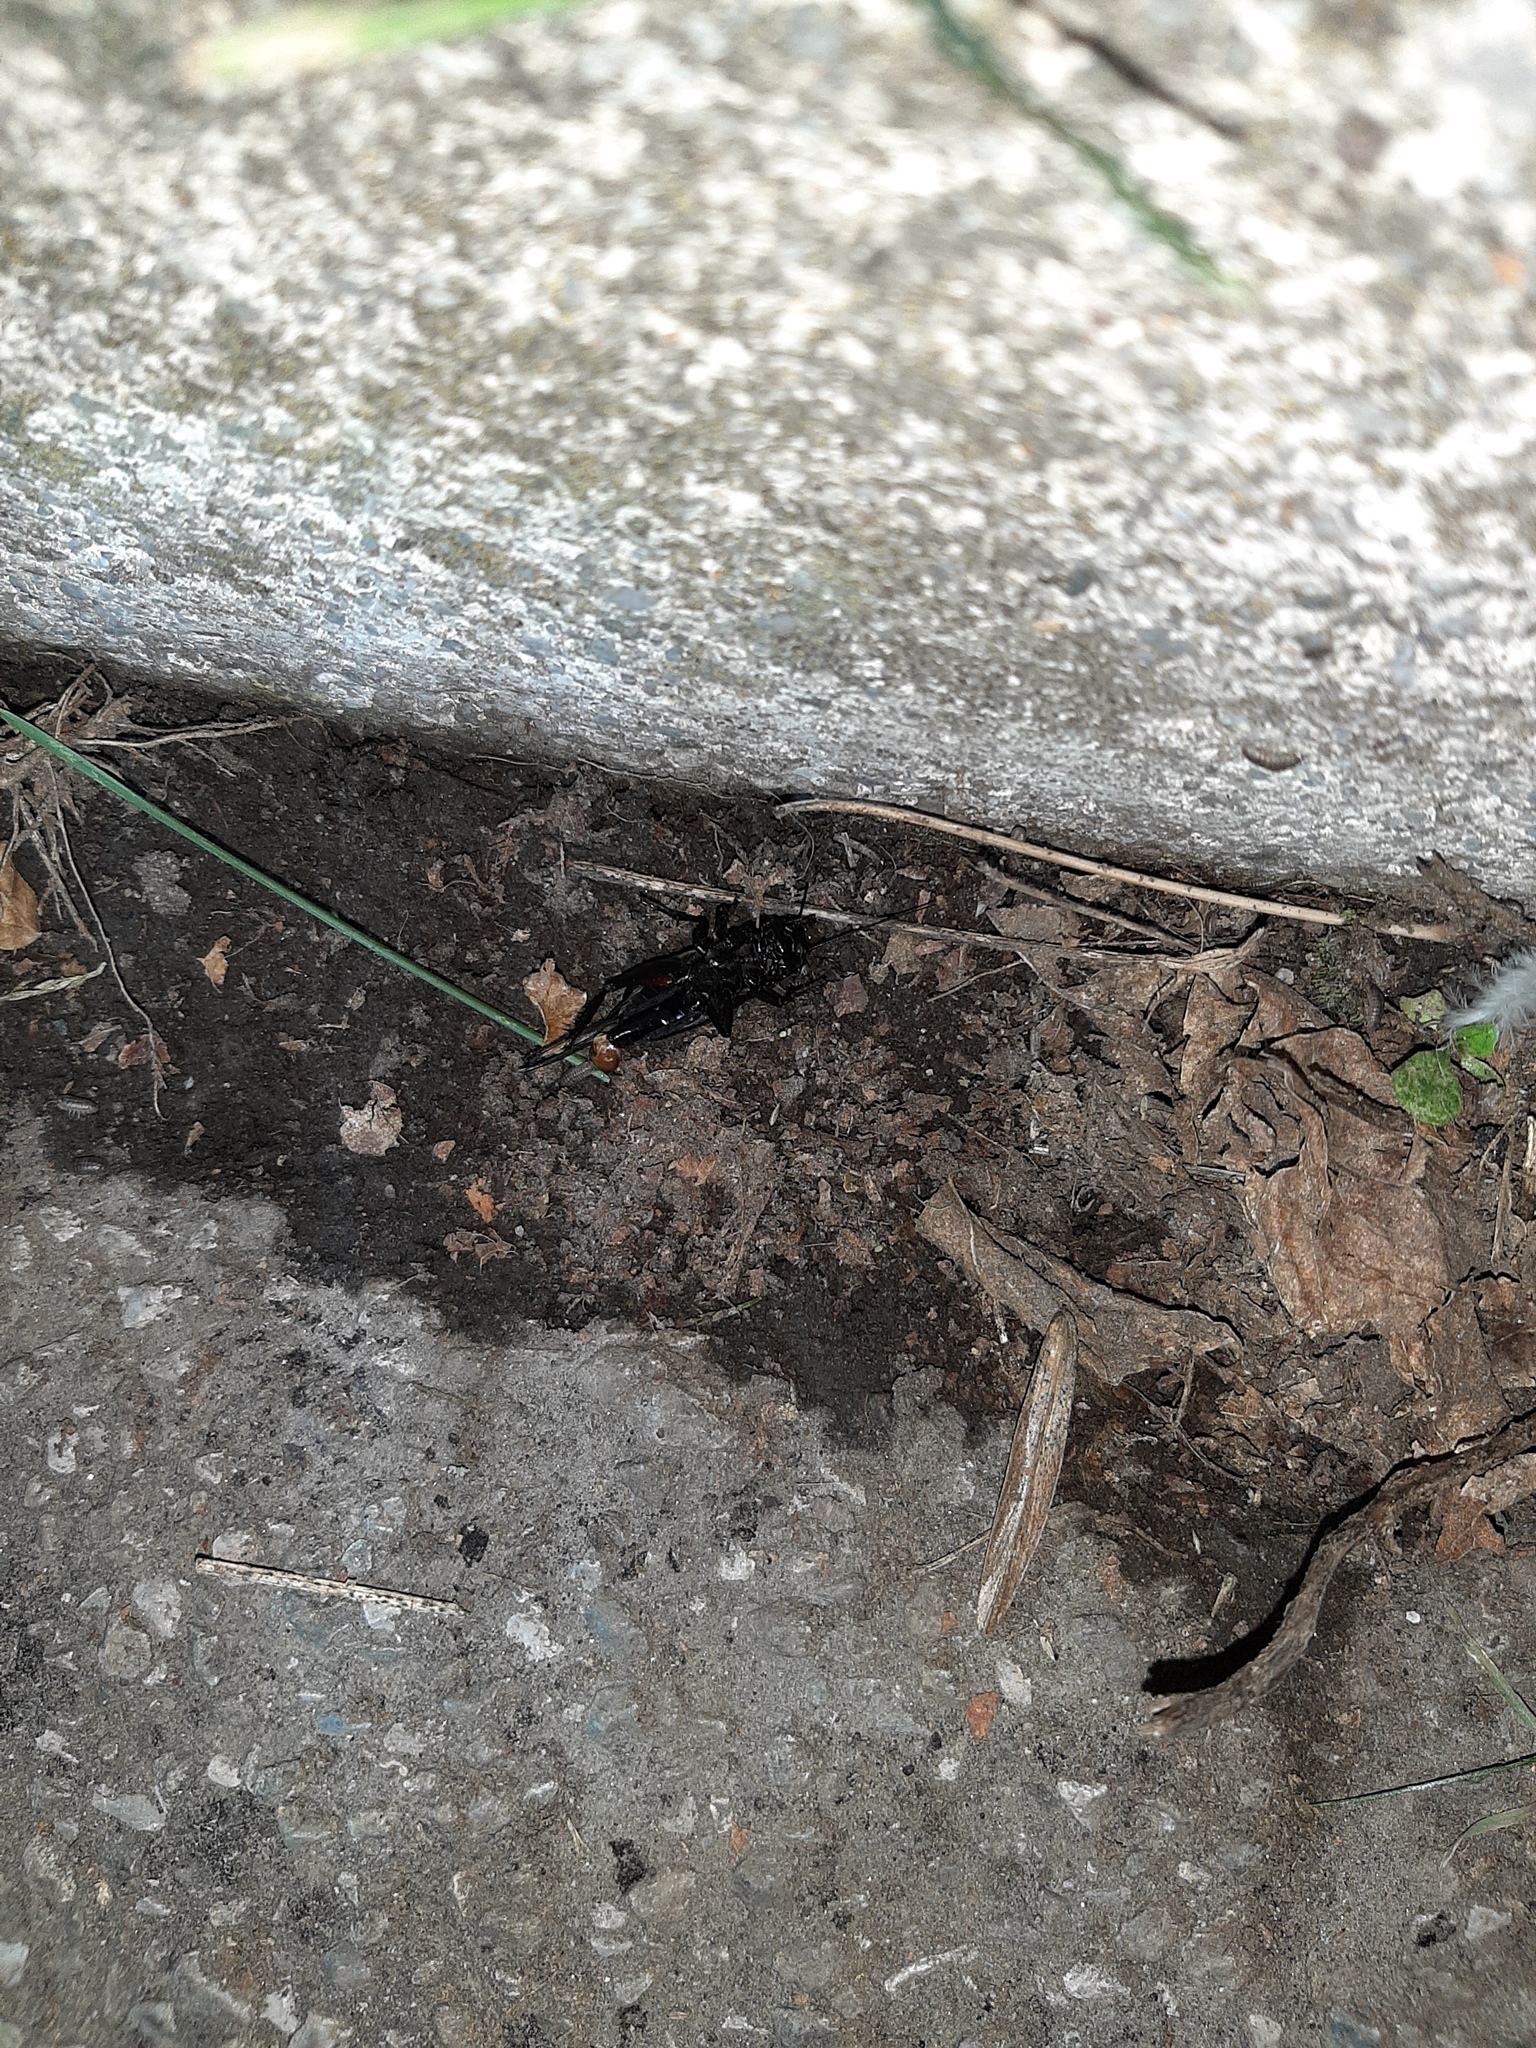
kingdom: Animalia
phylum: Arthropoda
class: Insecta
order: Orthoptera
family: Gryllidae
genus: Gryllus
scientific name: Gryllus bimaculatus
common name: Two-spotted cricket
